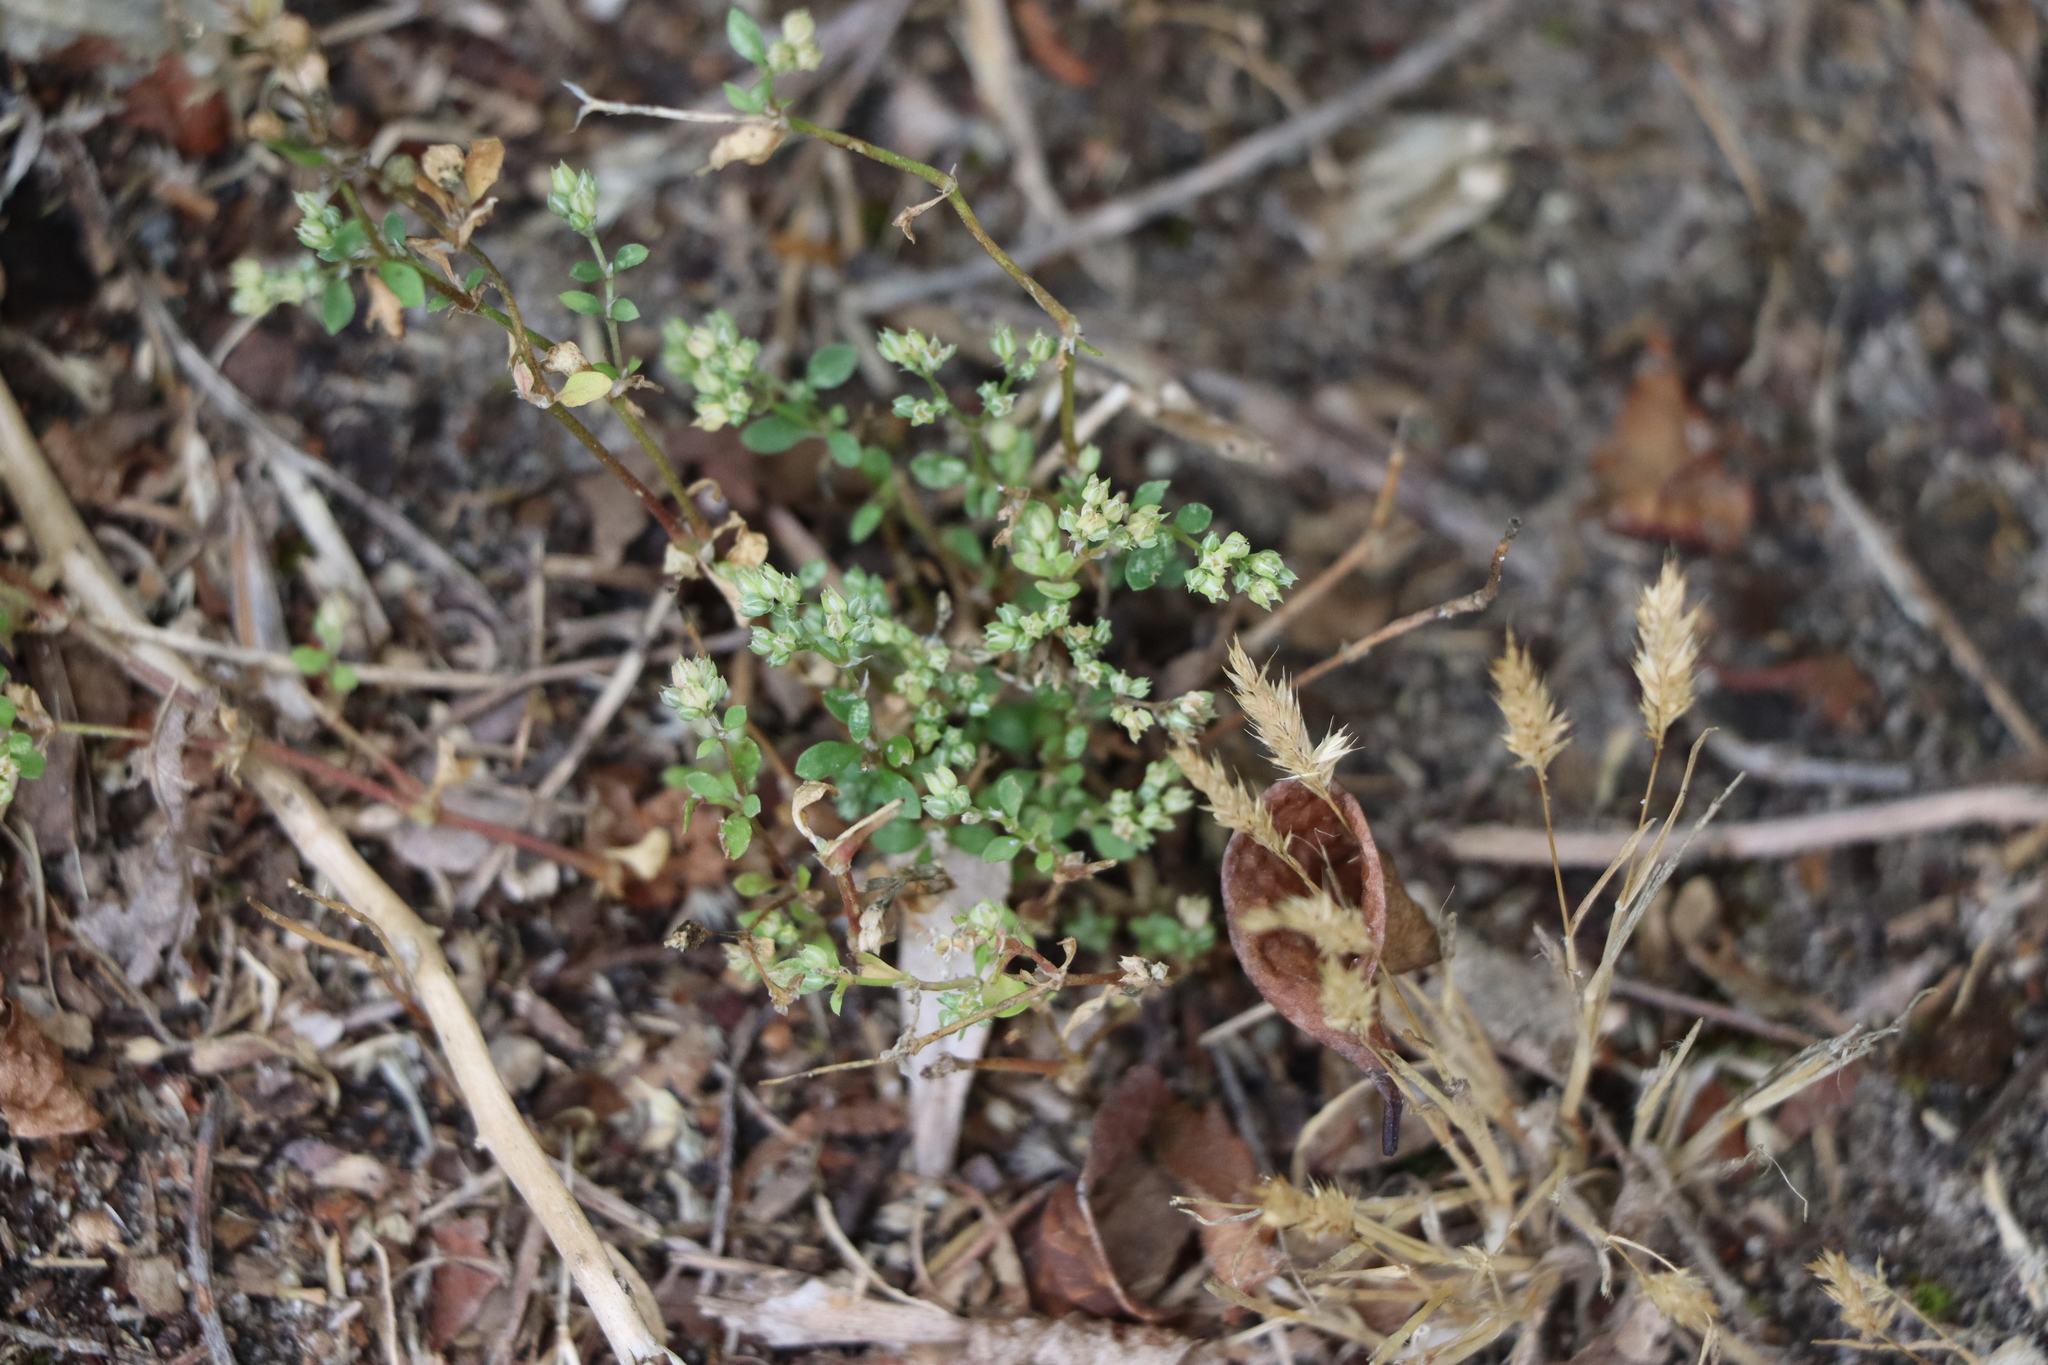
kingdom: Plantae
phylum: Tracheophyta
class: Magnoliopsida
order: Caryophyllales
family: Caryophyllaceae
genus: Polycarpon
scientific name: Polycarpon tetraphyllum
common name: Four-leaved all-seed
